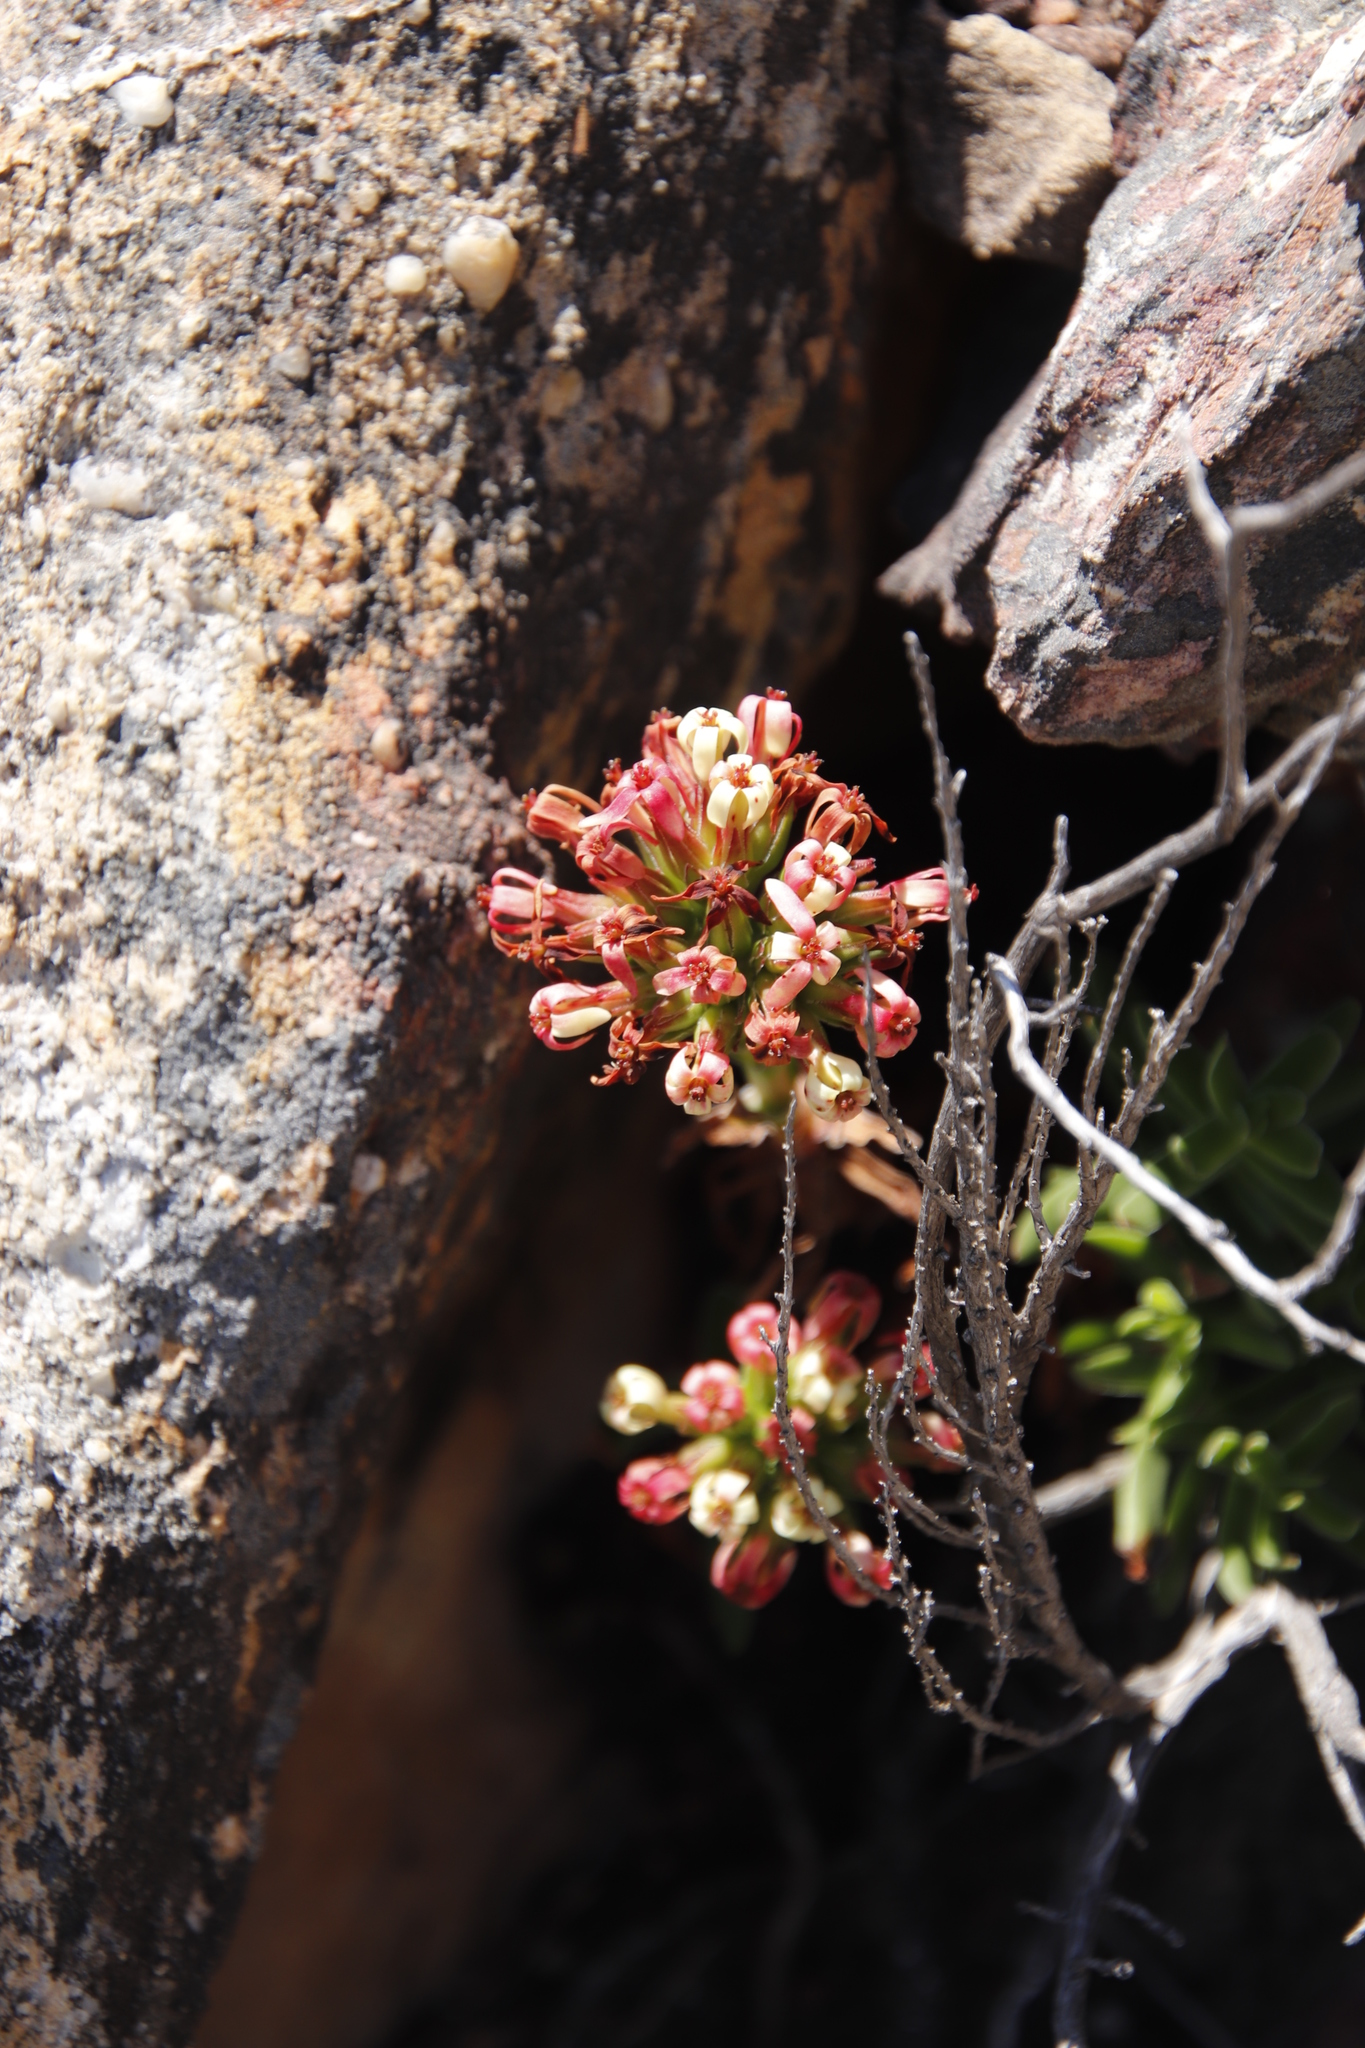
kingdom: Plantae
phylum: Tracheophyta
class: Magnoliopsida
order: Saxifragales
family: Crassulaceae
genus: Crassula
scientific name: Crassula fascicularis
